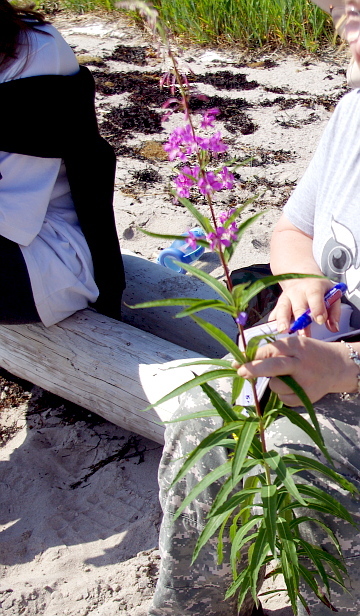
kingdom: Plantae
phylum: Tracheophyta
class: Magnoliopsida
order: Myrtales
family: Onagraceae
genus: Chamaenerion
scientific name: Chamaenerion angustifolium
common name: Fireweed
